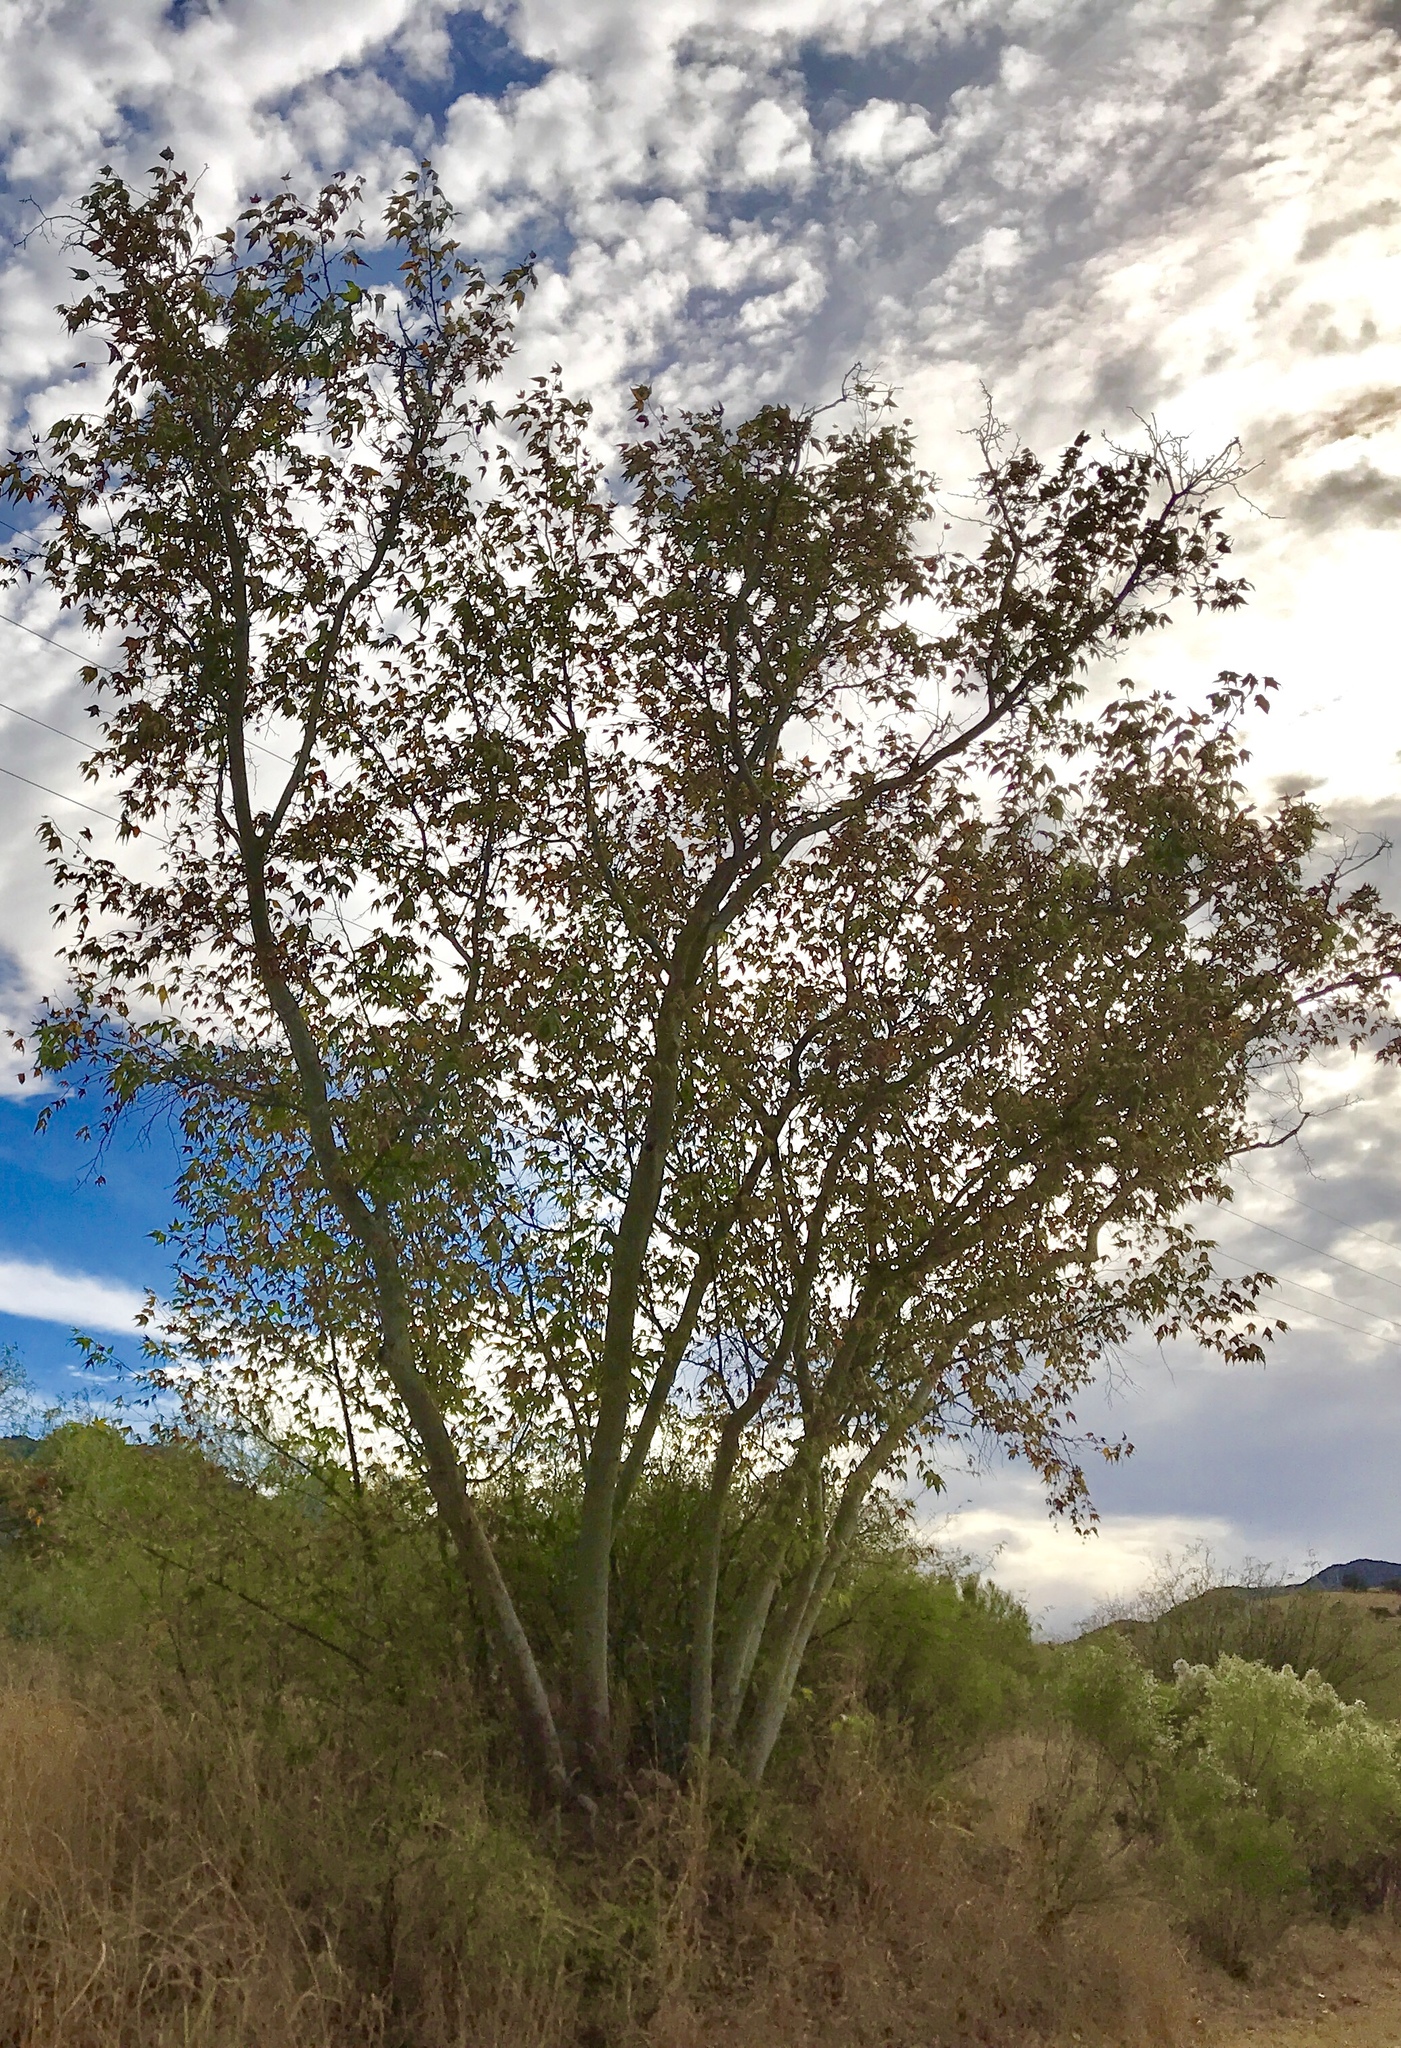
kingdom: Plantae
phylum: Tracheophyta
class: Magnoliopsida
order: Proteales
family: Platanaceae
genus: Platanus
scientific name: Platanus wrightii
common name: Arizona sycamore
